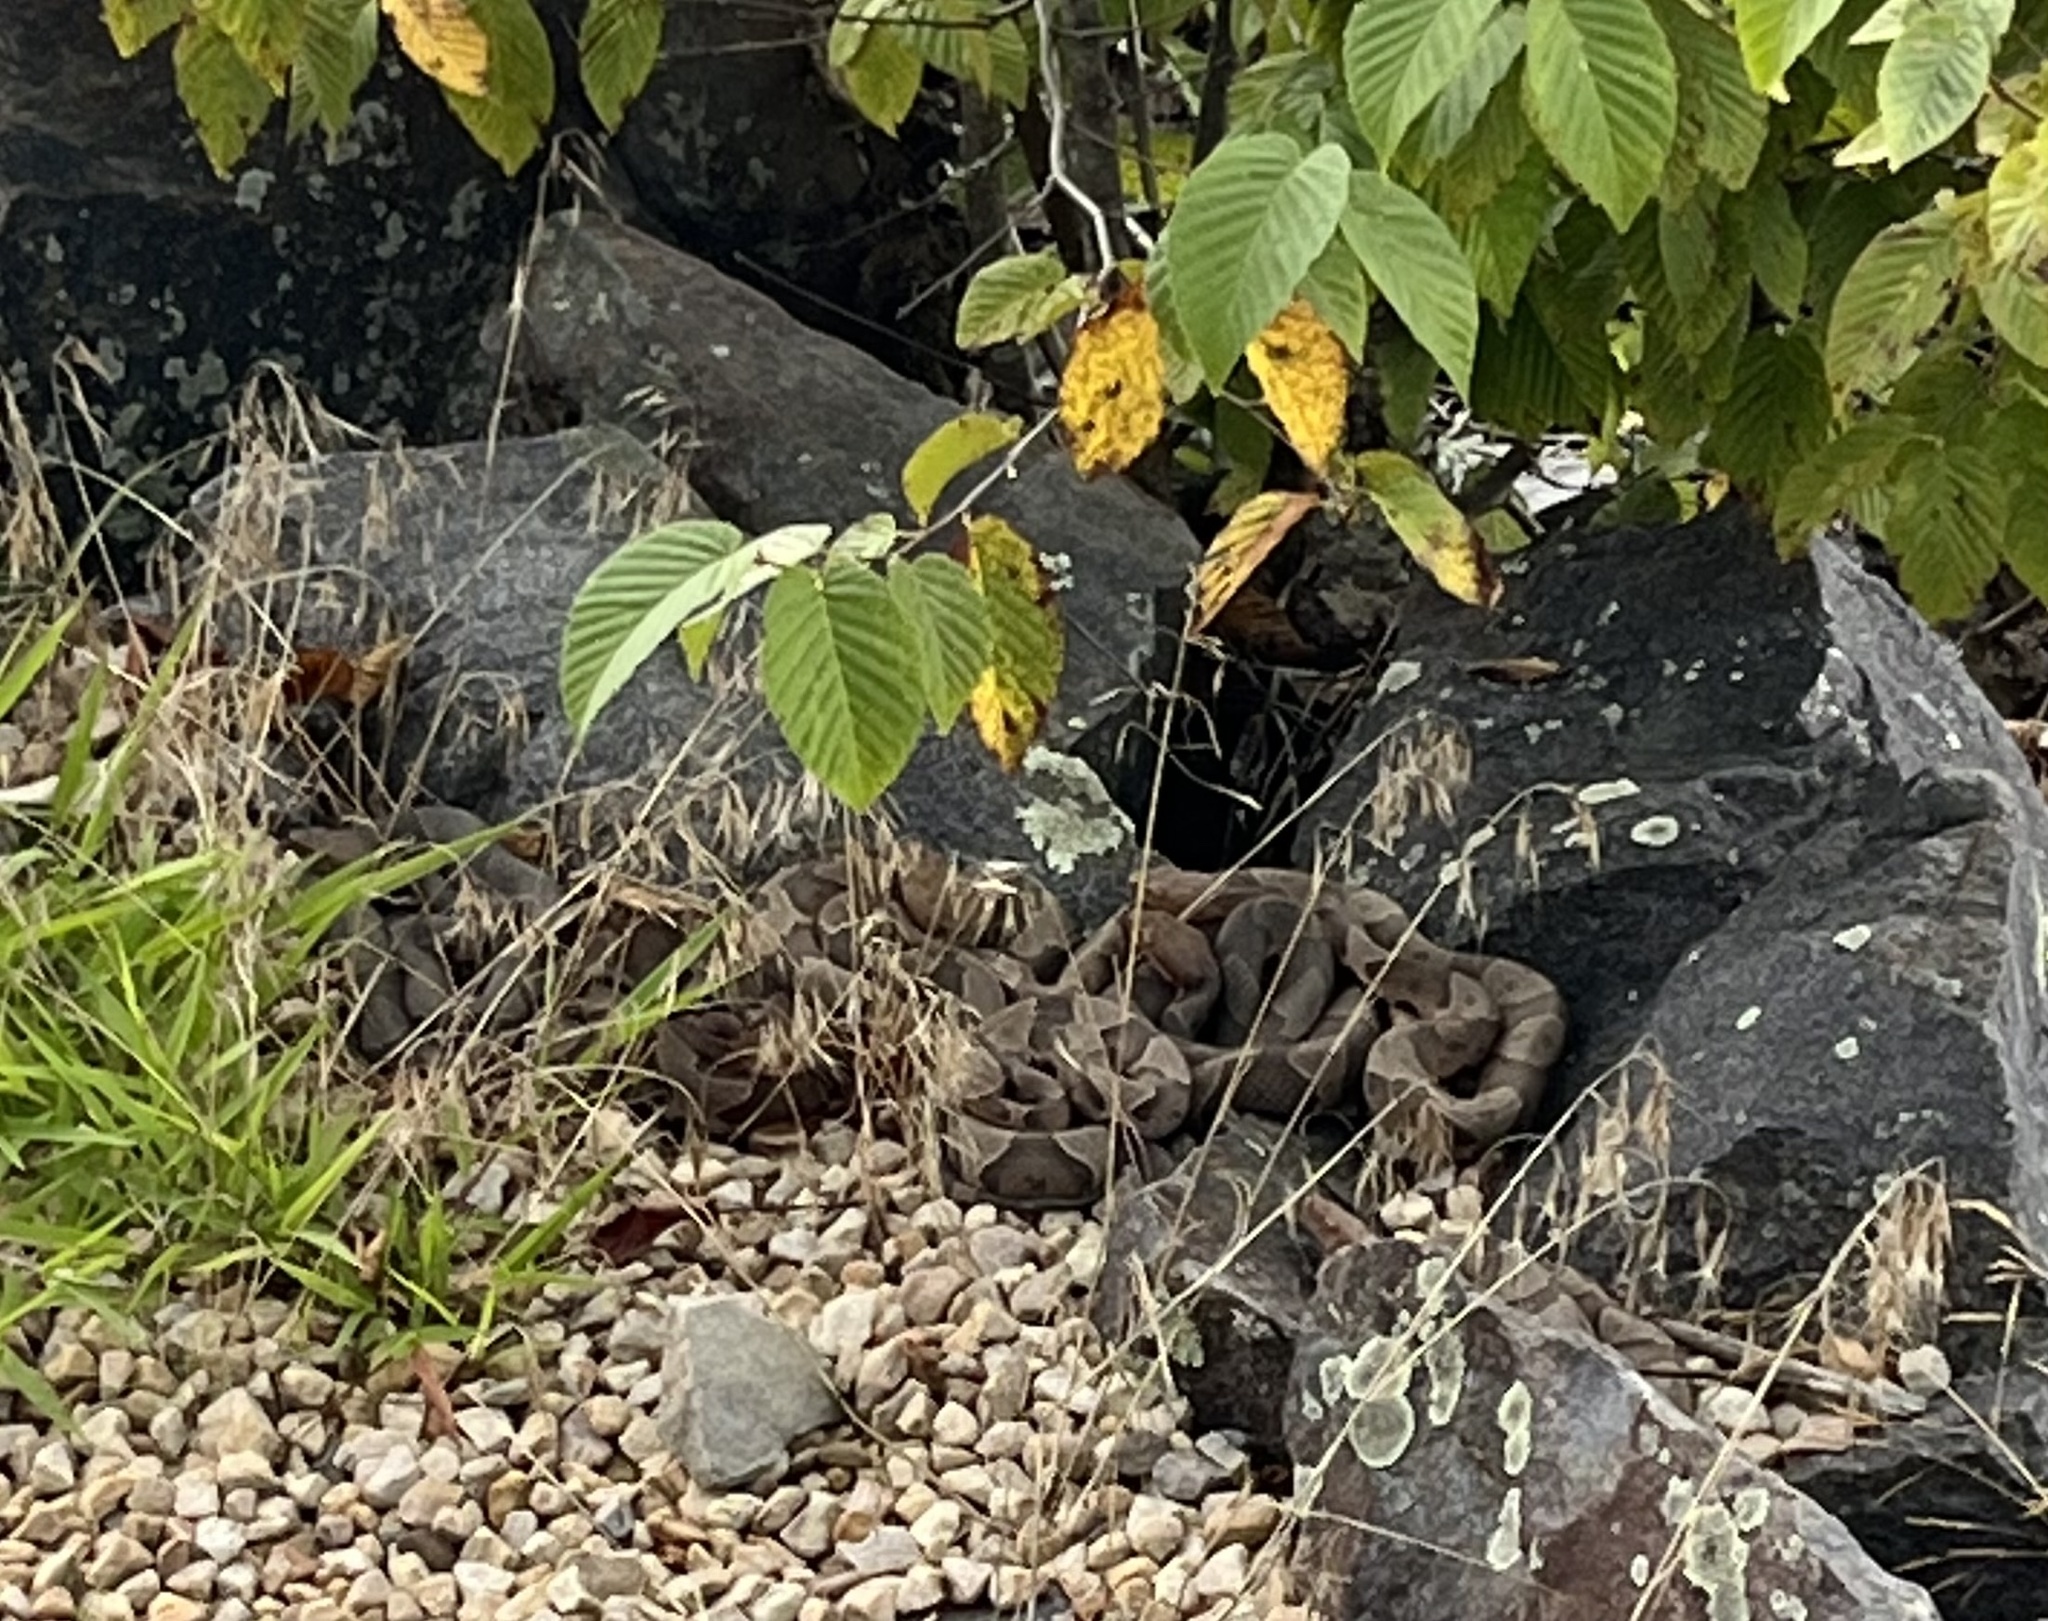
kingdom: Animalia
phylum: Chordata
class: Squamata
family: Viperidae
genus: Agkistrodon
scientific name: Agkistrodon contortrix
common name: Northern copperhead
